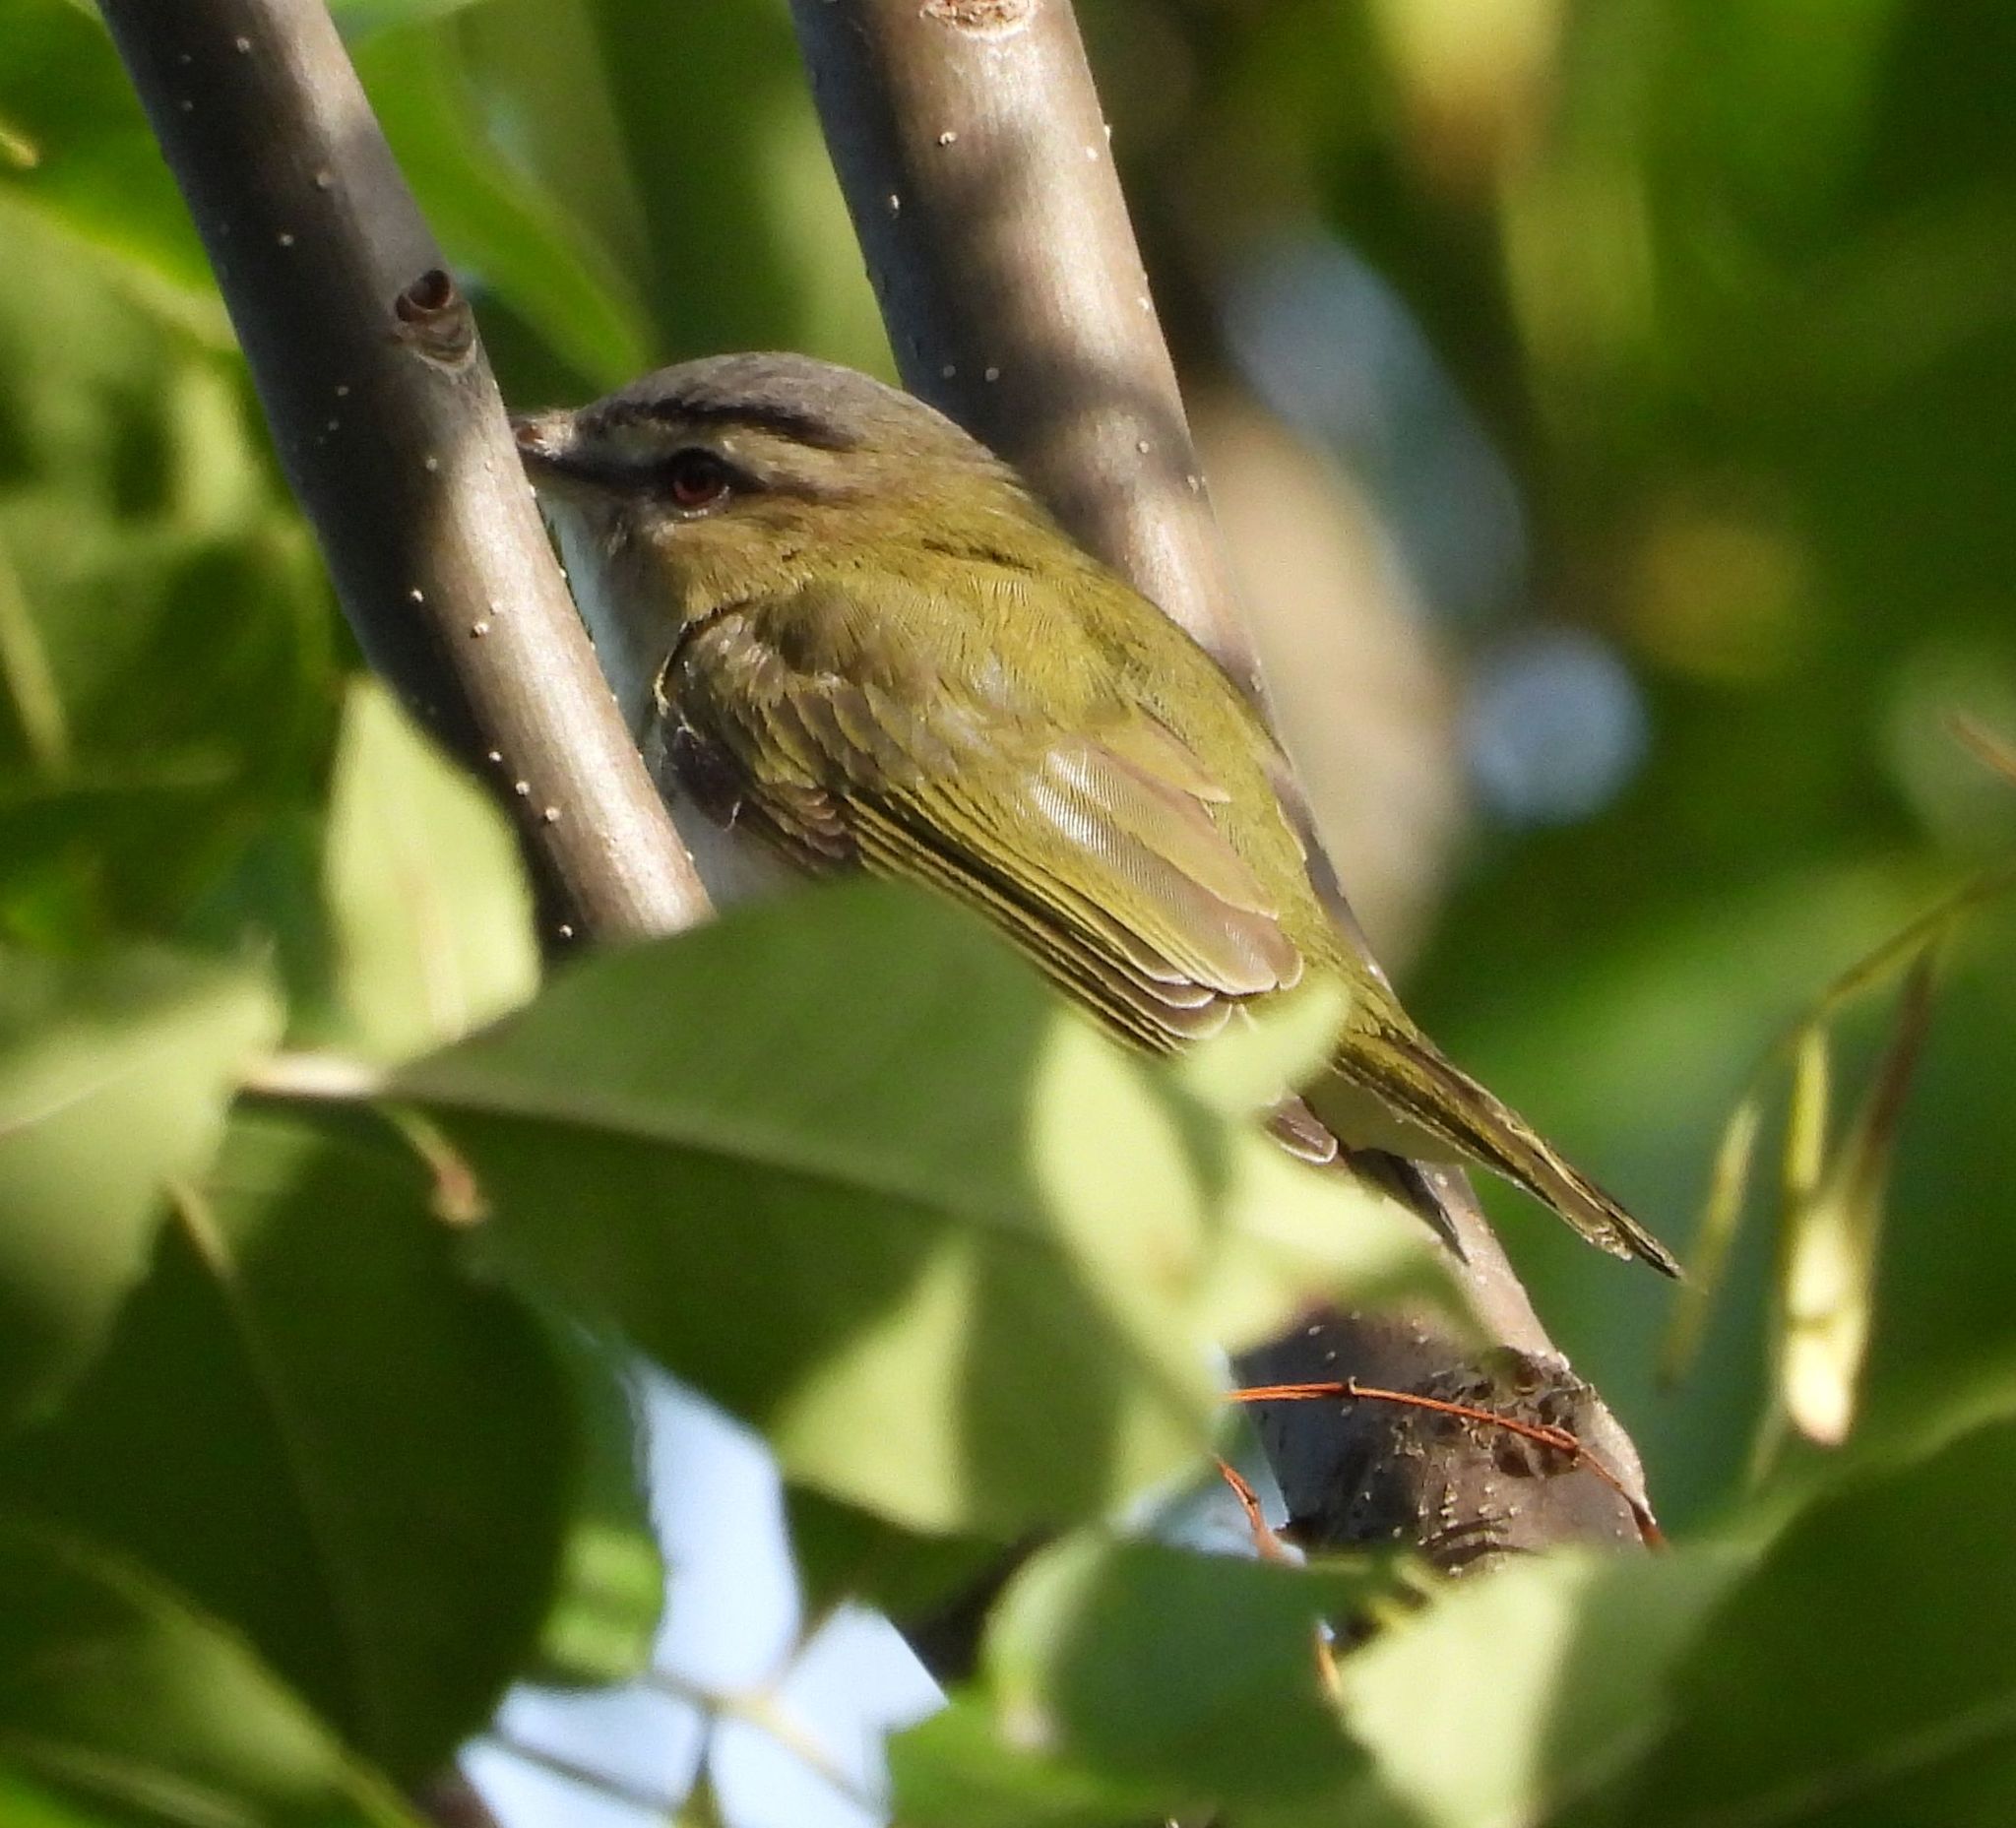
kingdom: Animalia
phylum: Chordata
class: Aves
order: Passeriformes
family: Vireonidae
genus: Vireo
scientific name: Vireo olivaceus
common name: Red-eyed vireo
